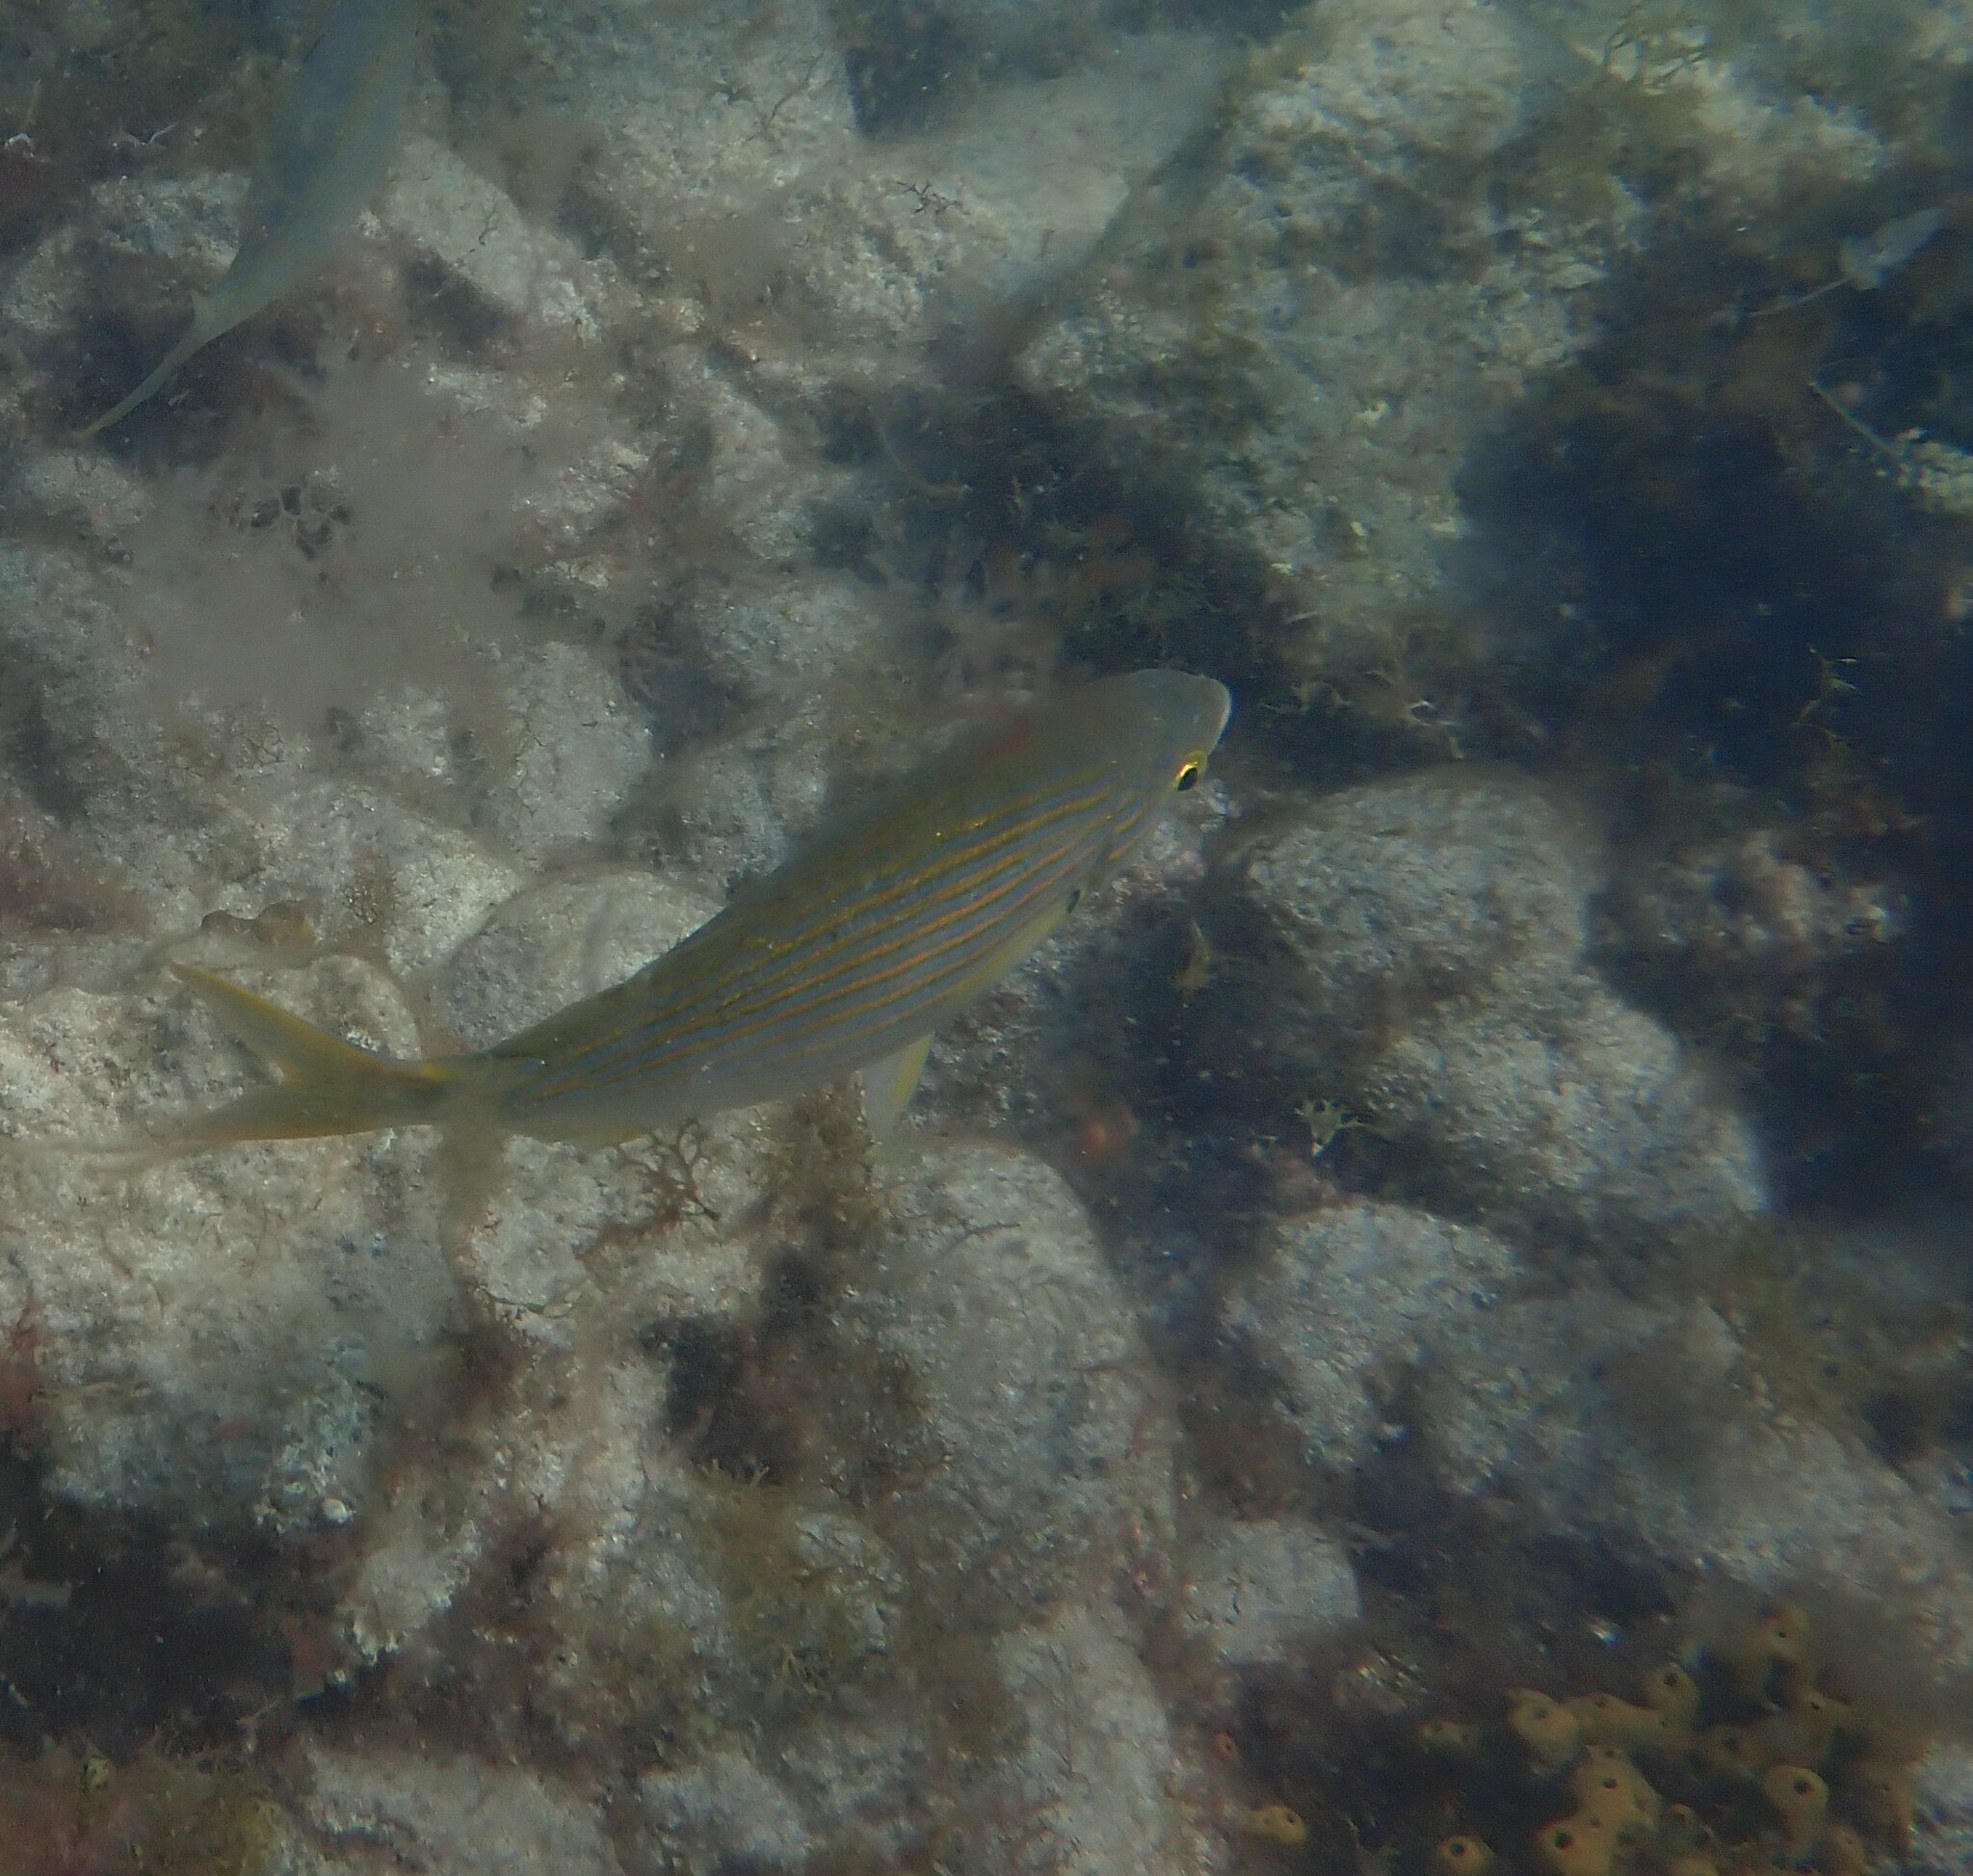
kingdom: Animalia
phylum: Chordata
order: Perciformes
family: Sparidae
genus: Sarpa
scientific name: Sarpa salpa
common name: Salema
